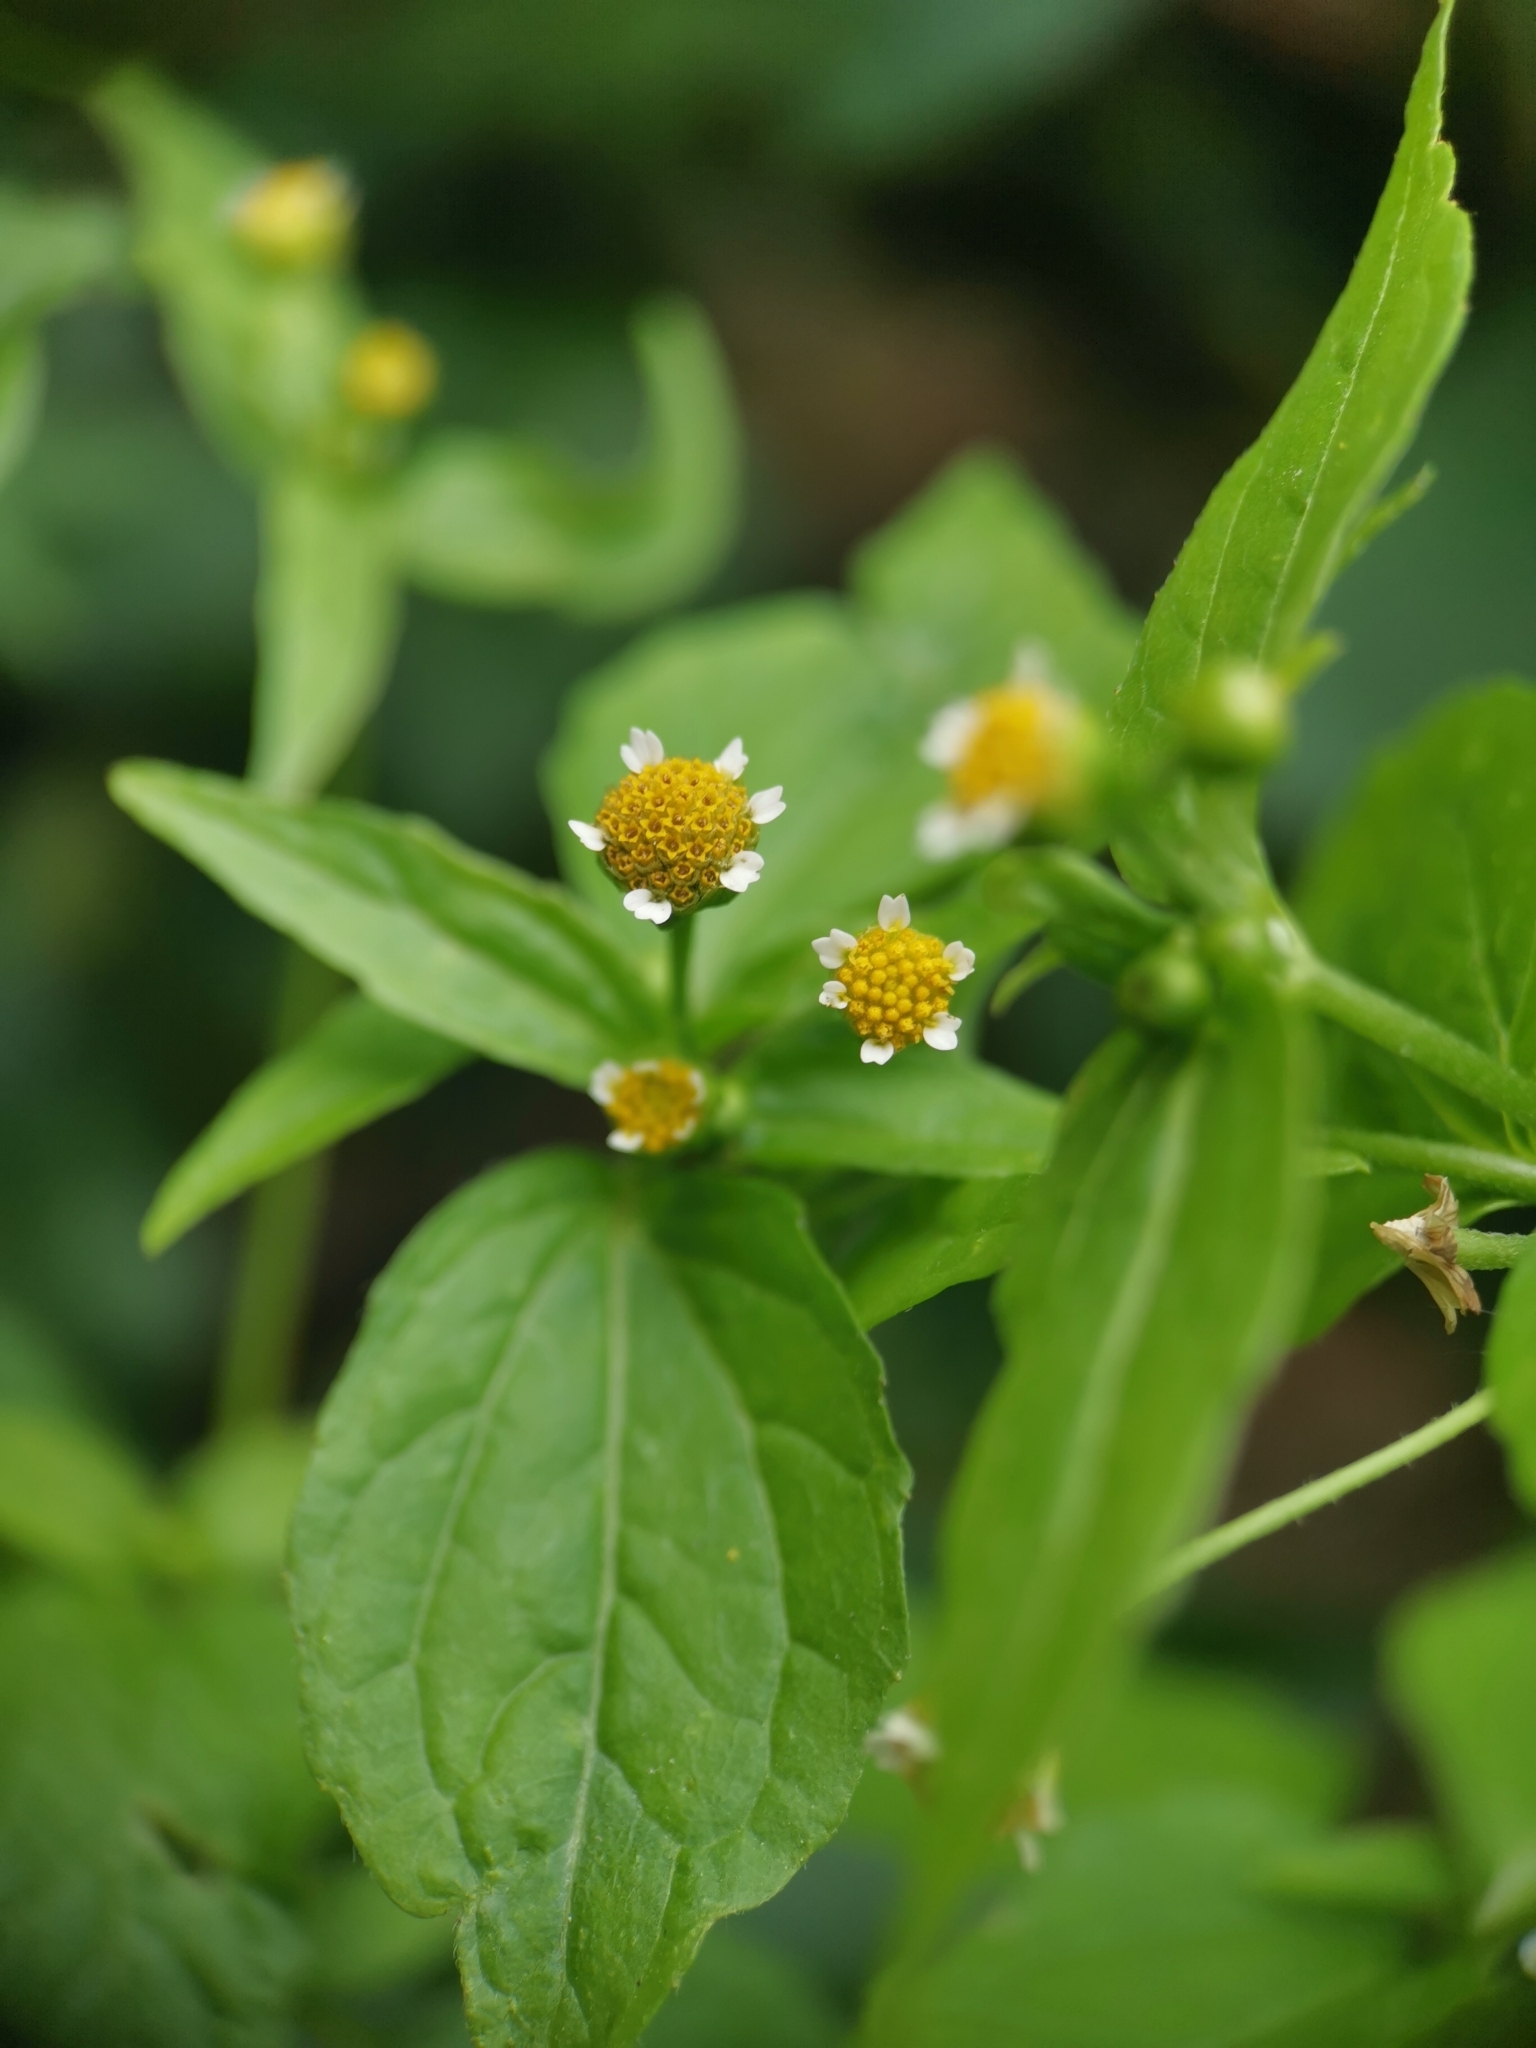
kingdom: Plantae
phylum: Tracheophyta
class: Magnoliopsida
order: Asterales
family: Asteraceae
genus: Galinsoga
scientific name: Galinsoga parviflora
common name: Gallant soldier
